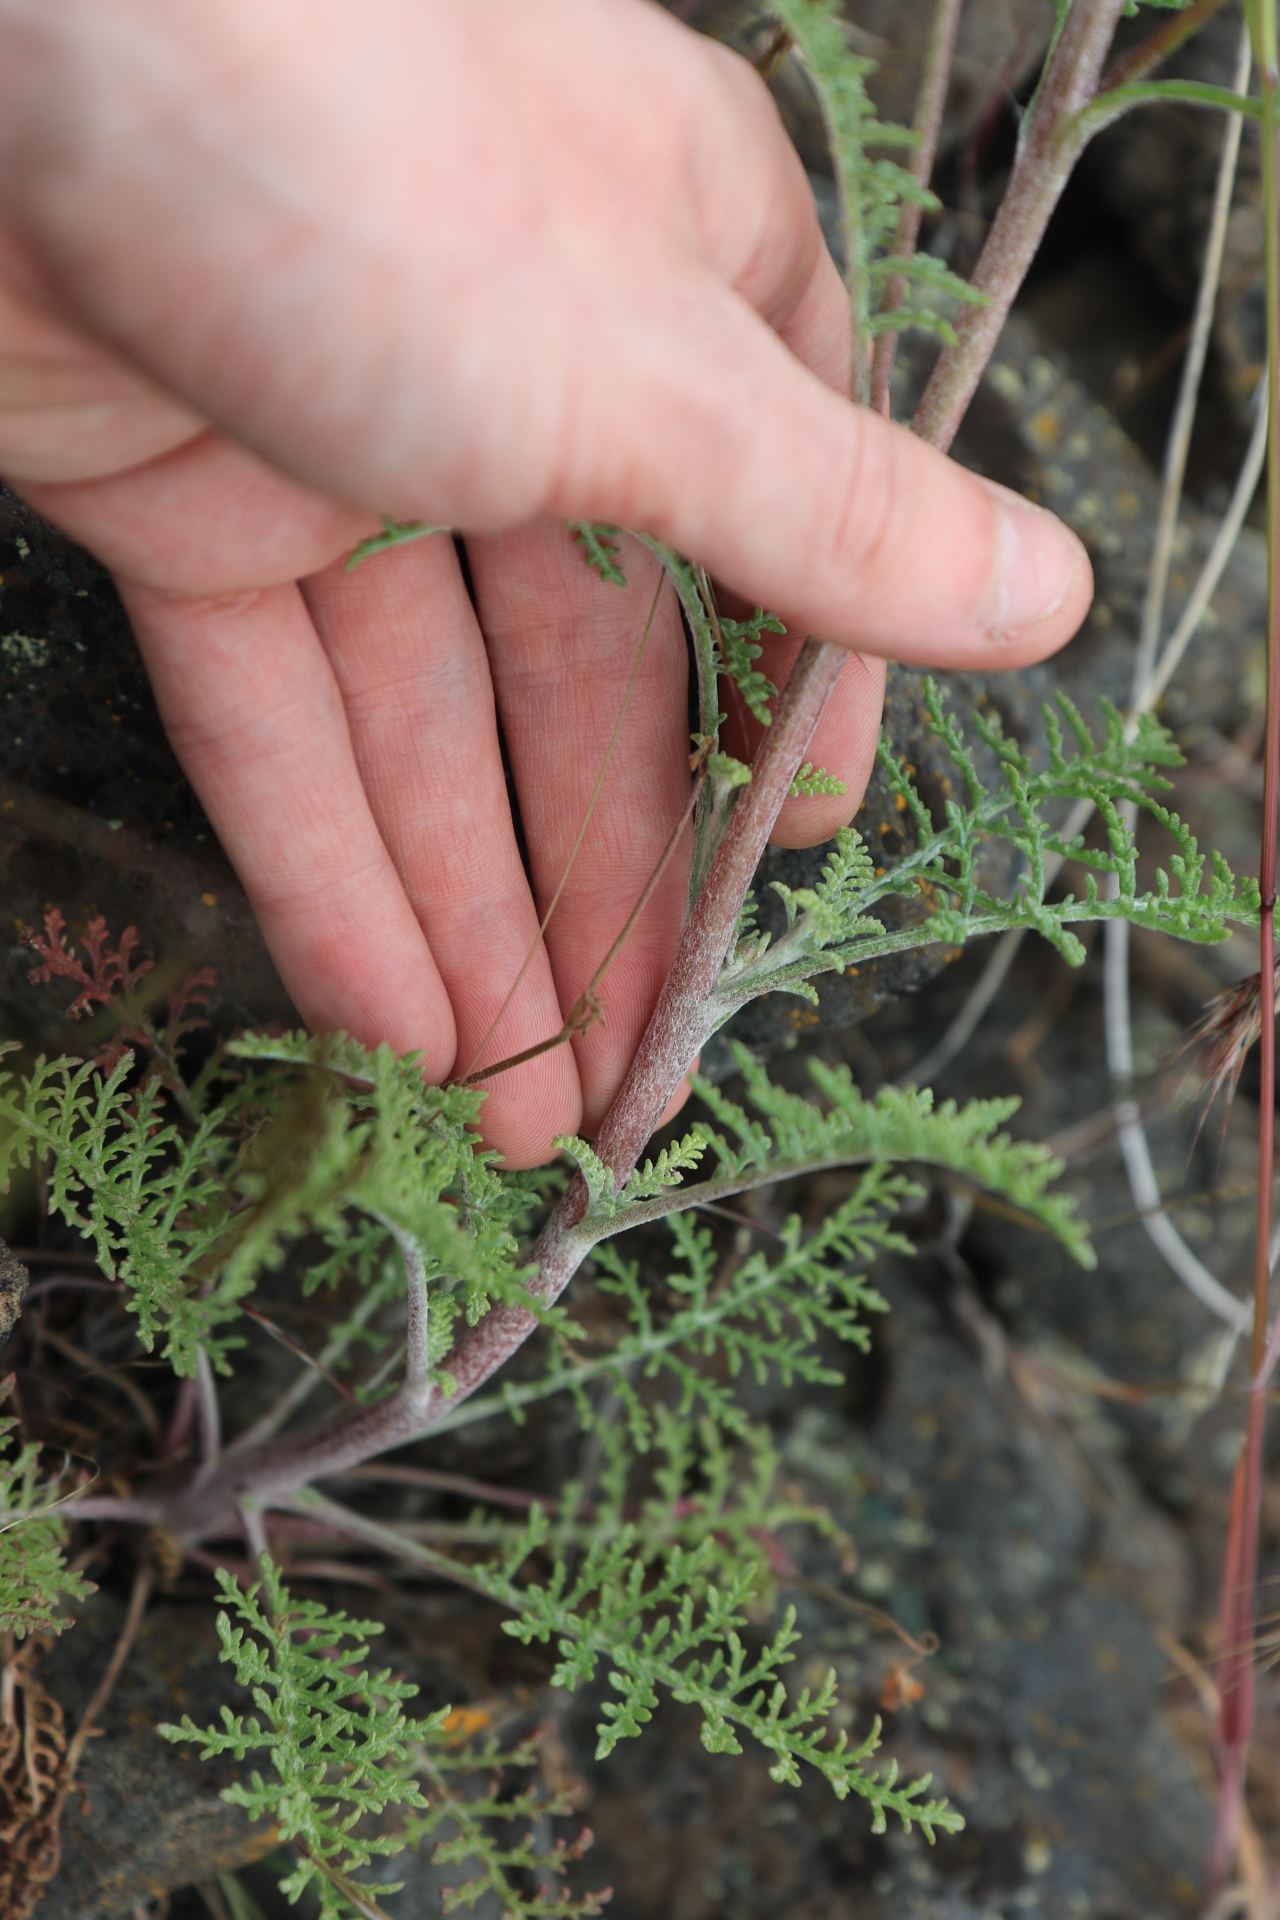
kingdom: Plantae
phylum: Tracheophyta
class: Magnoliopsida
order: Asterales
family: Asteraceae
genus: Chaenactis
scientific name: Chaenactis douglasii
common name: Hoary pincushion
